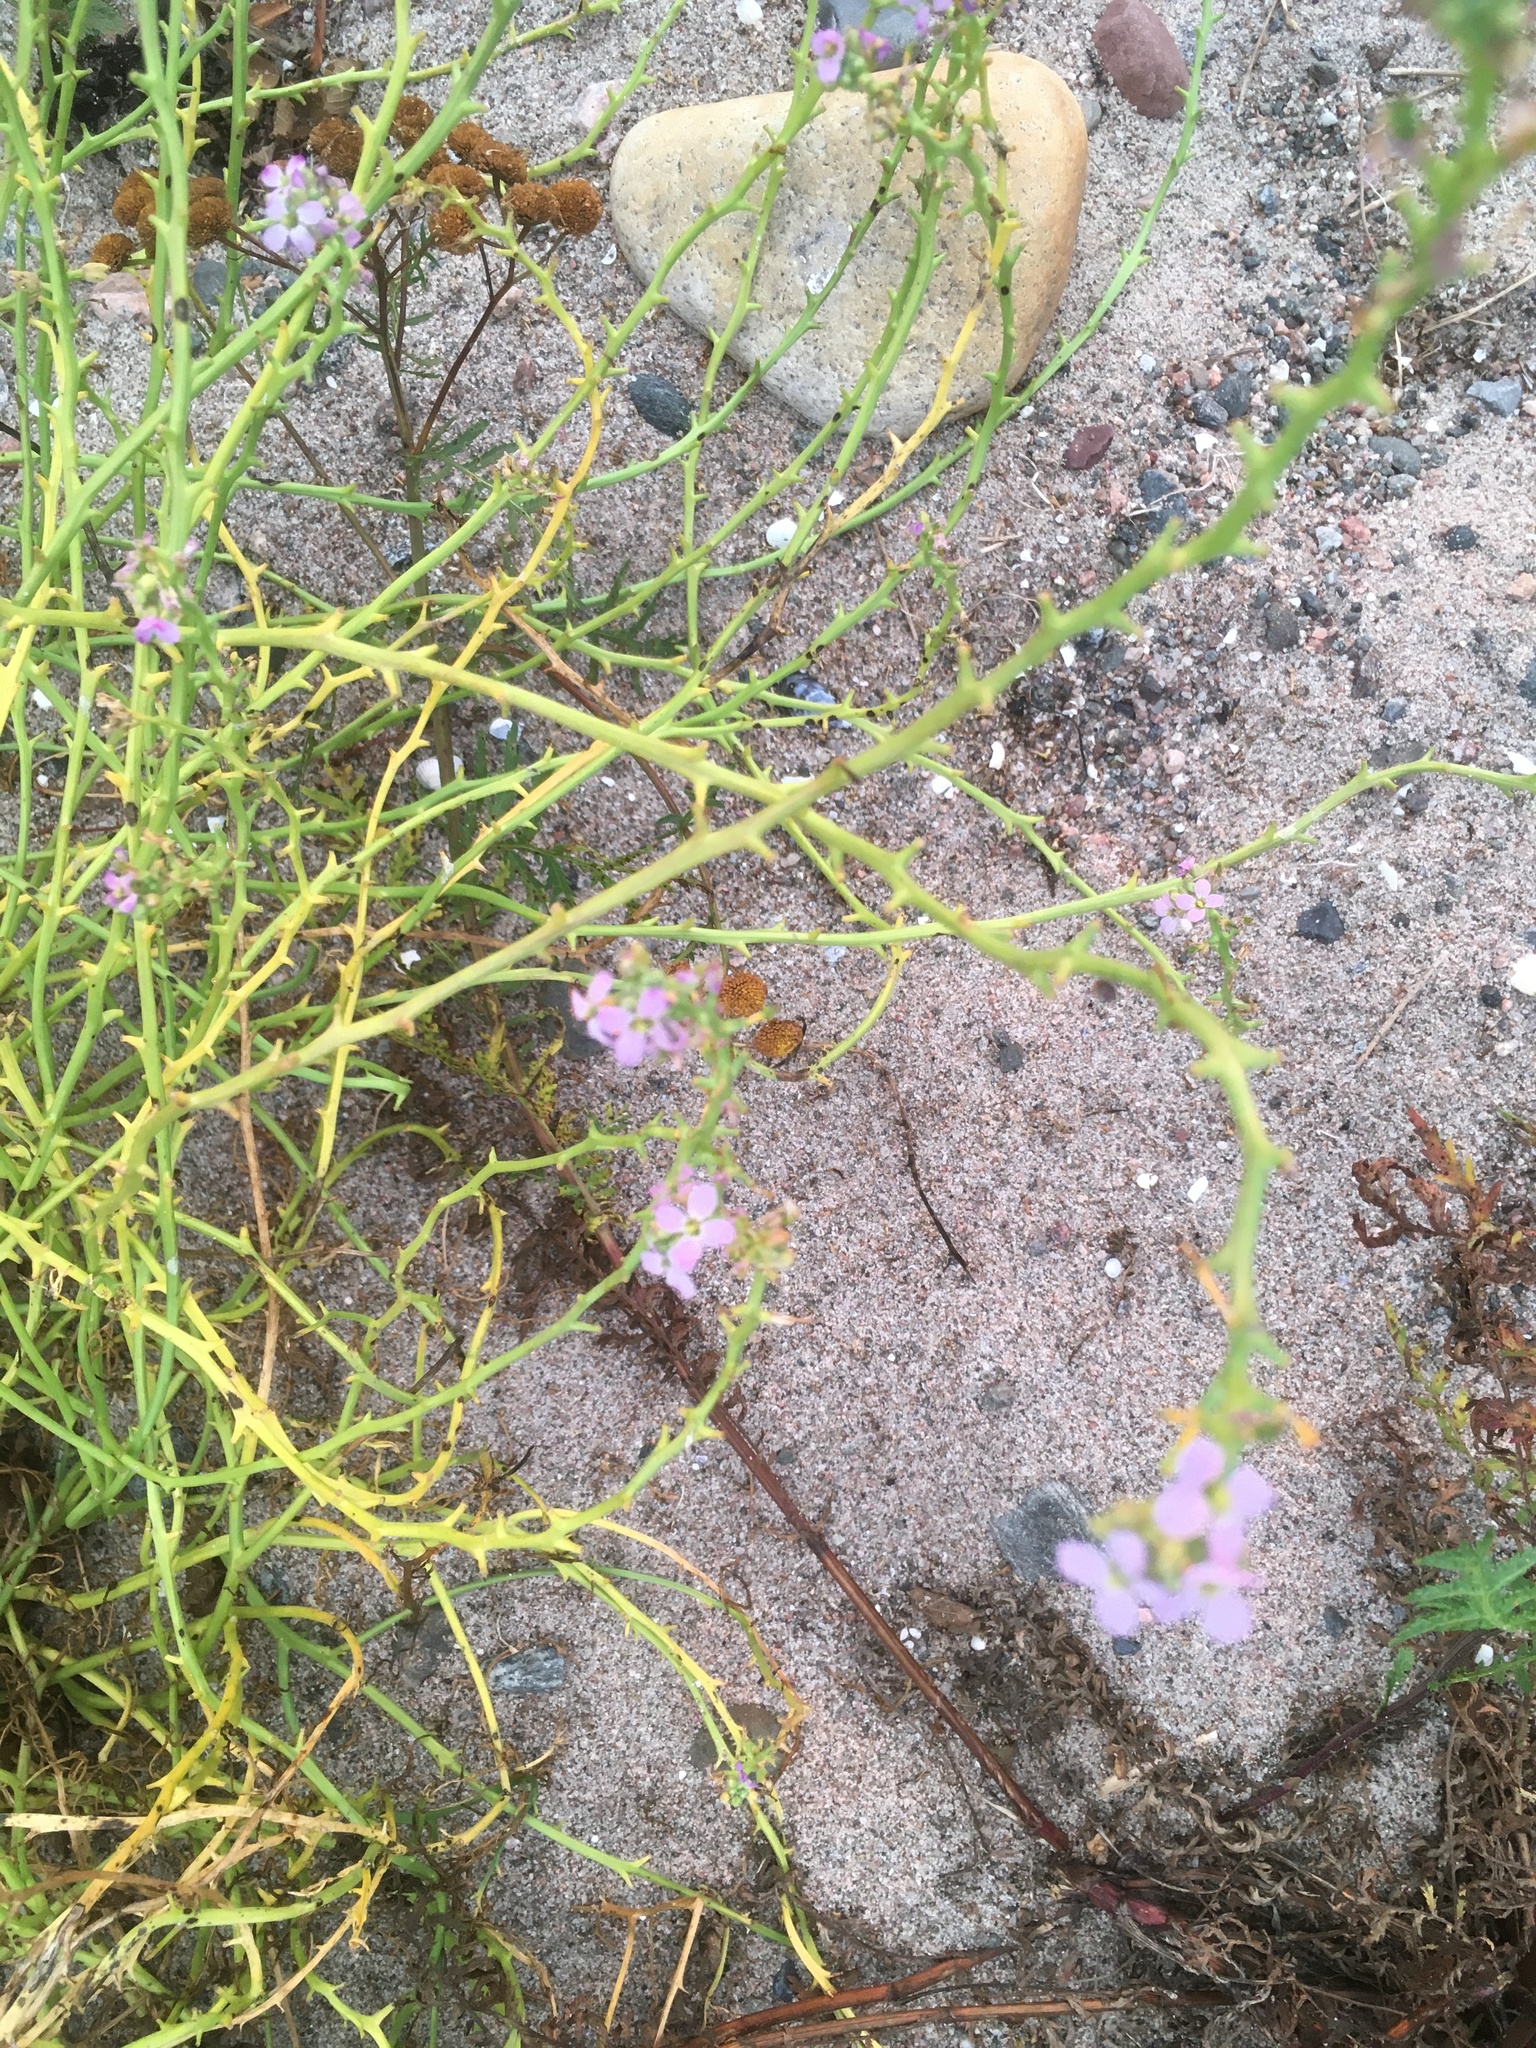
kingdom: Plantae
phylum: Tracheophyta
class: Magnoliopsida
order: Brassicales
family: Brassicaceae
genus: Cakile
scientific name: Cakile maritima
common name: Sea rocket
